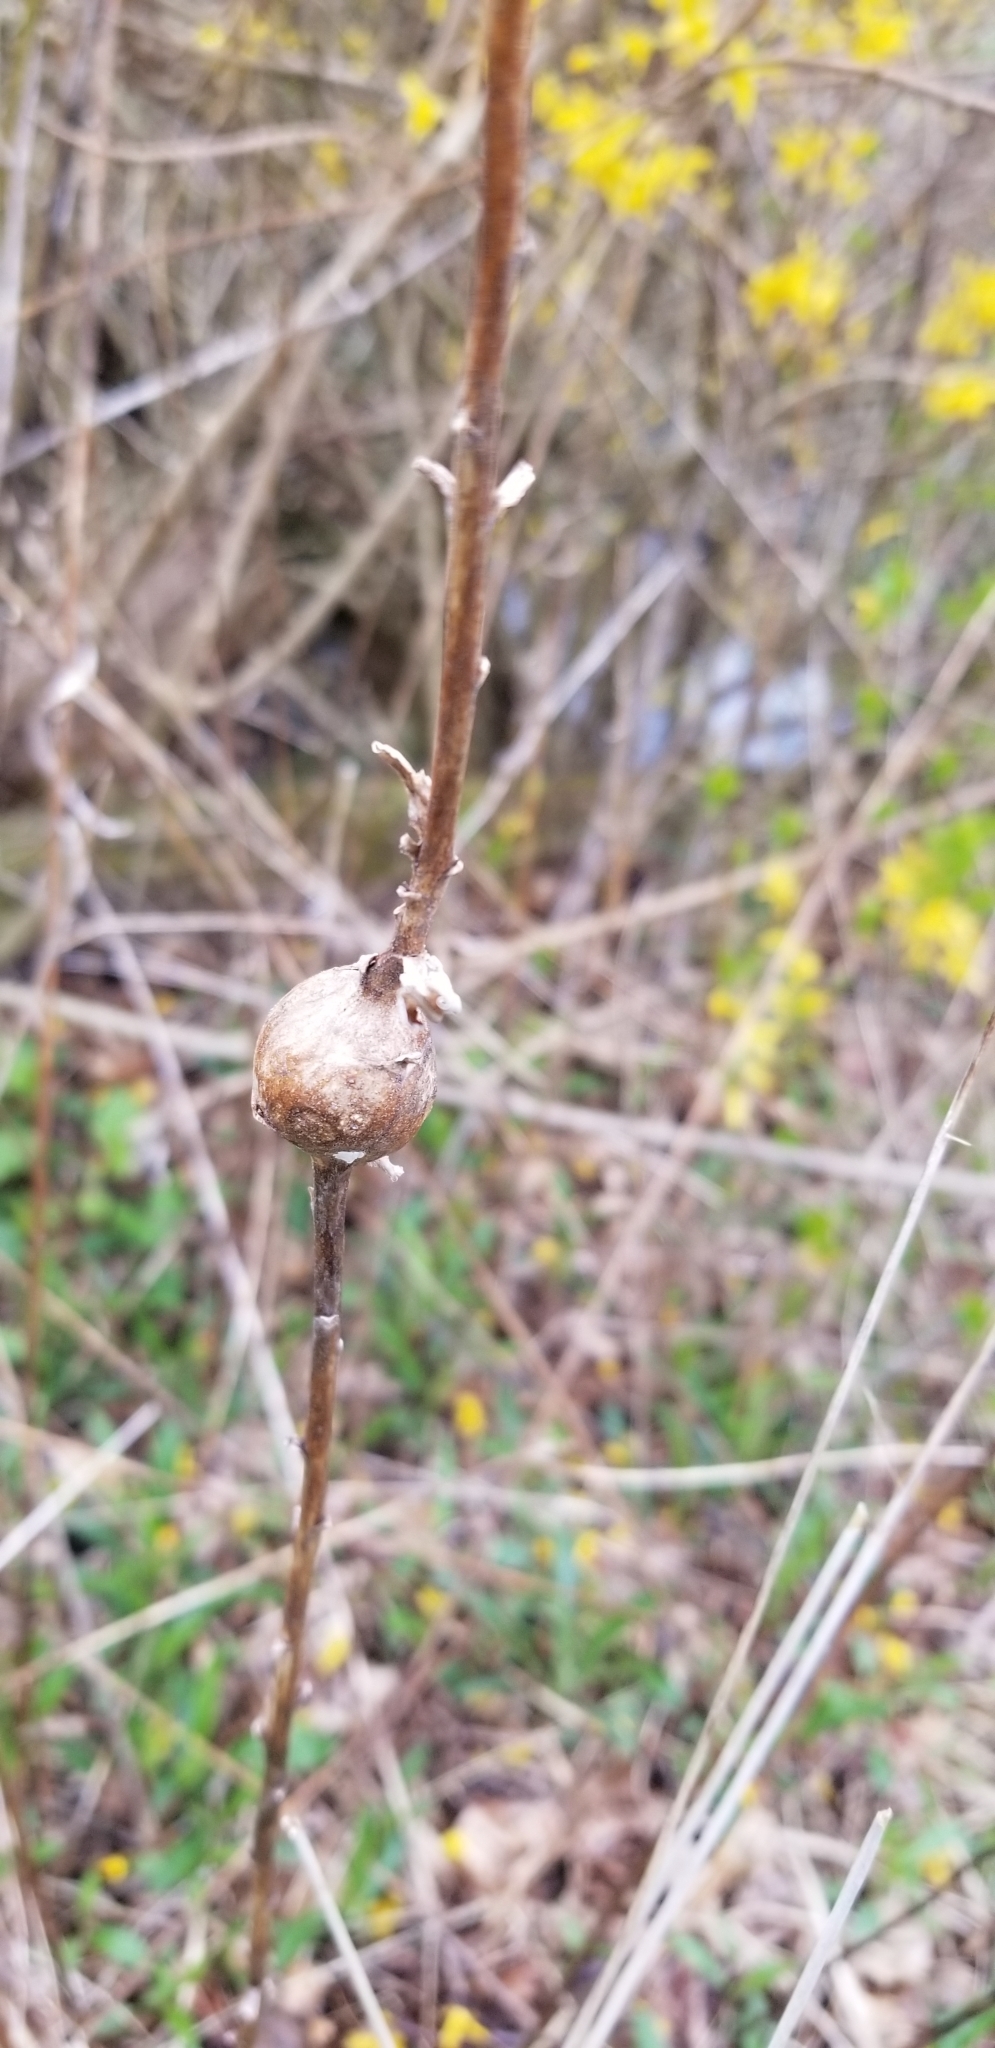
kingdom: Animalia
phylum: Arthropoda
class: Insecta
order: Diptera
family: Tephritidae
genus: Eurosta
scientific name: Eurosta solidaginis
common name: Goldenrod gall fly
